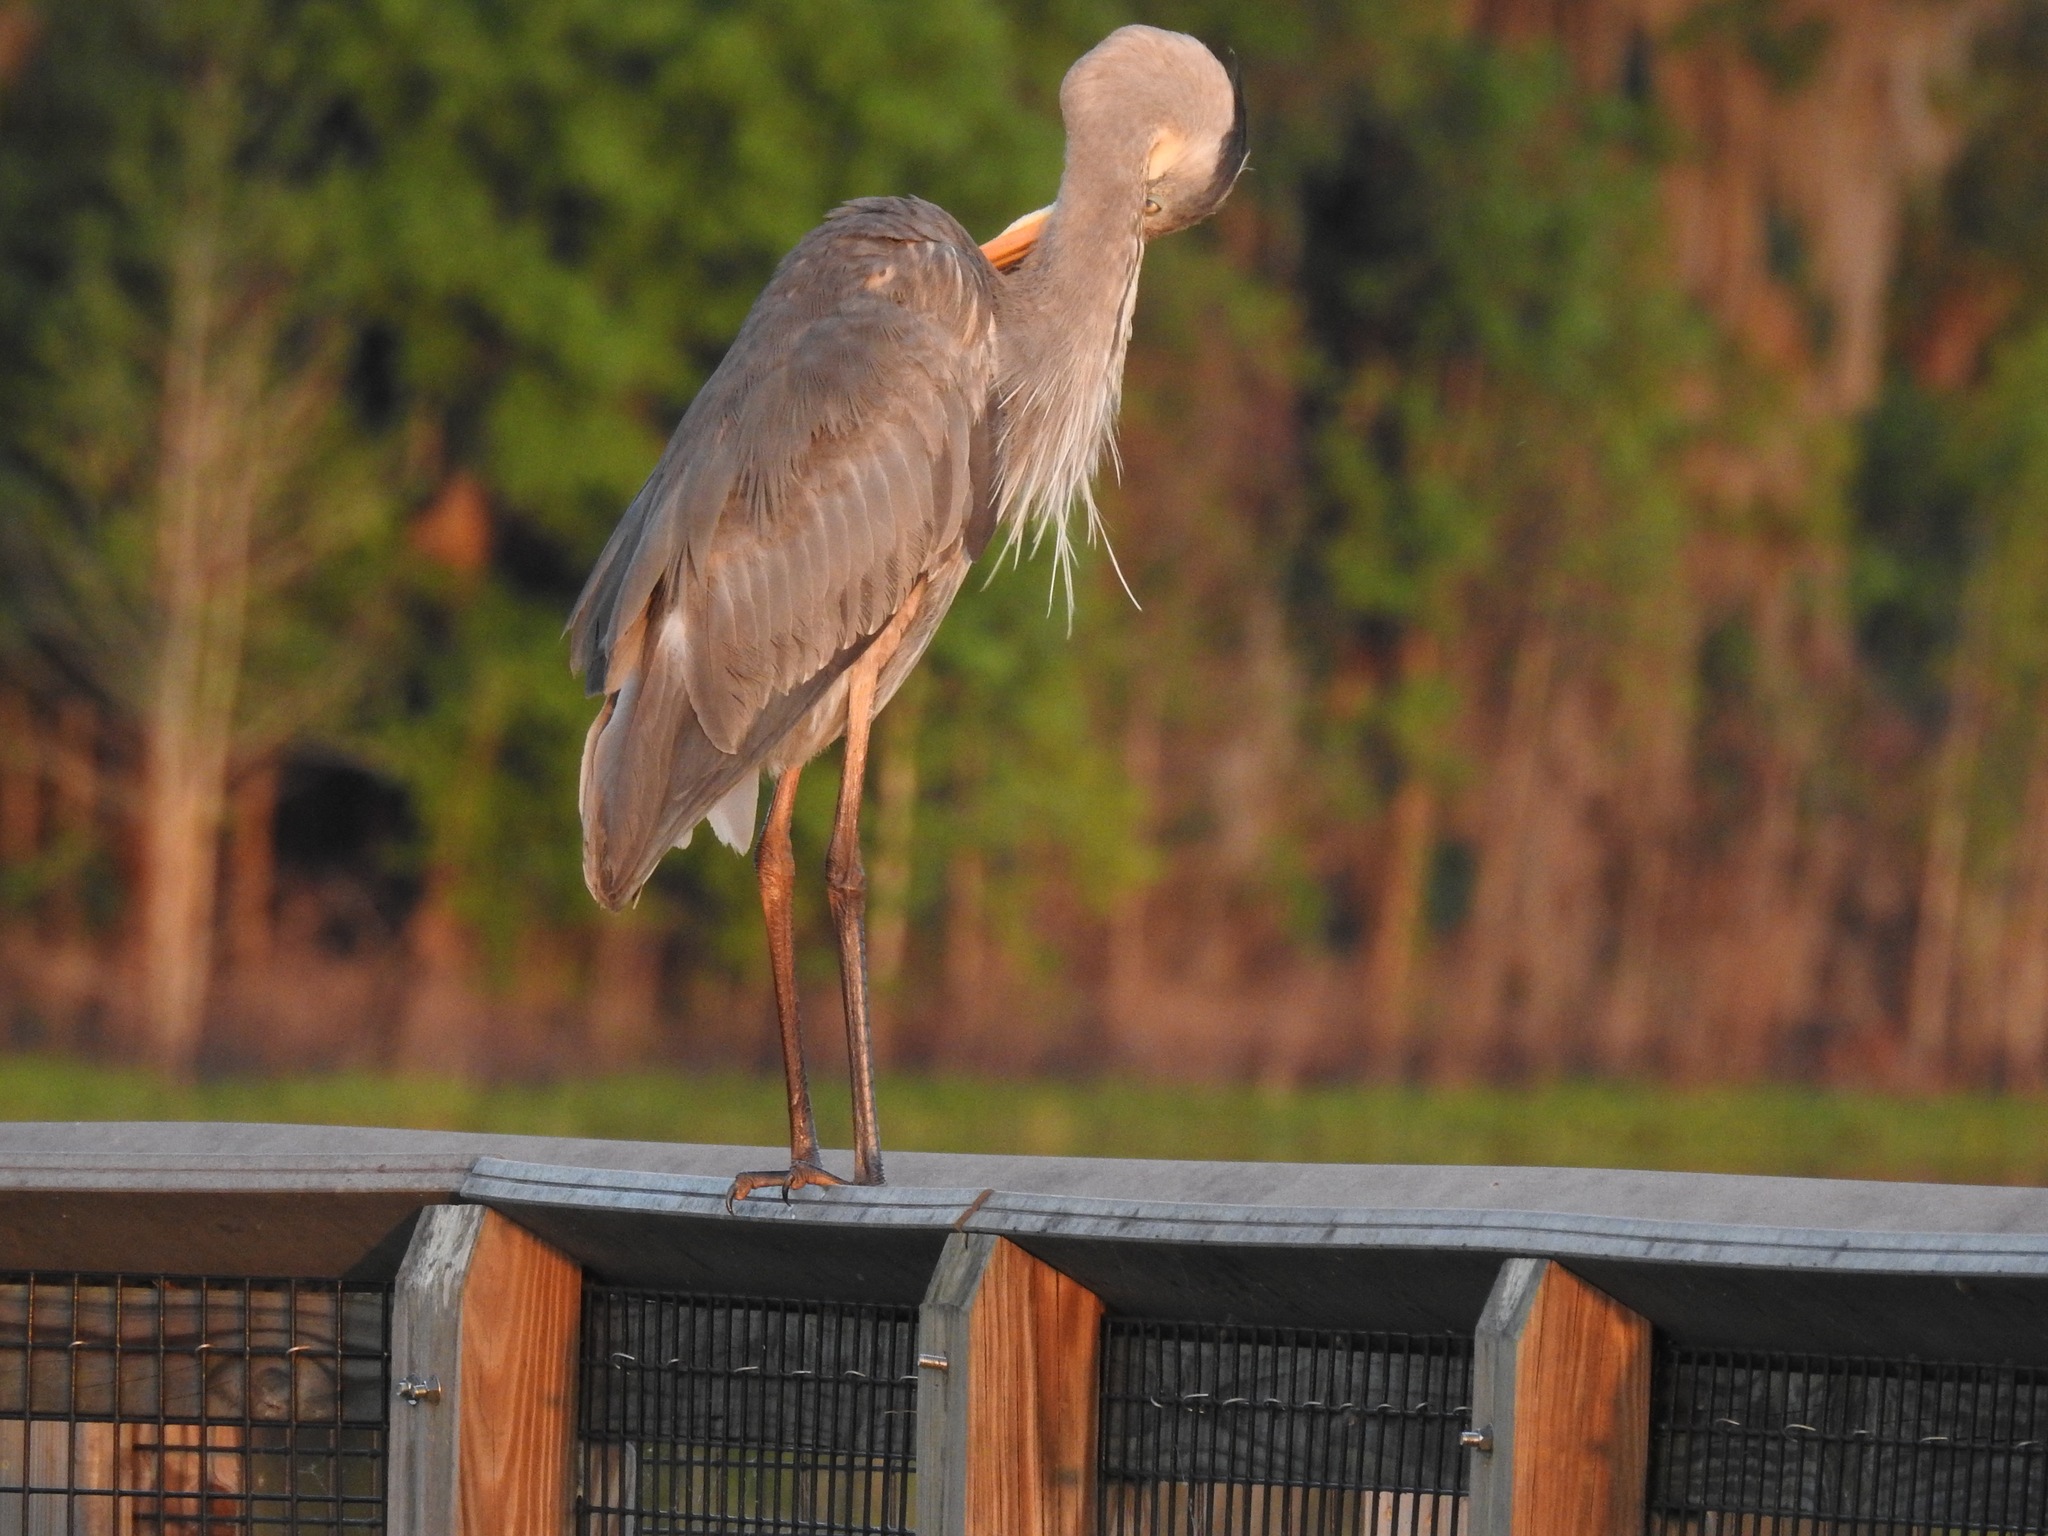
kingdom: Animalia
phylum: Chordata
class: Aves
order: Pelecaniformes
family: Ardeidae
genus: Ardea
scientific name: Ardea herodias
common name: Great blue heron
